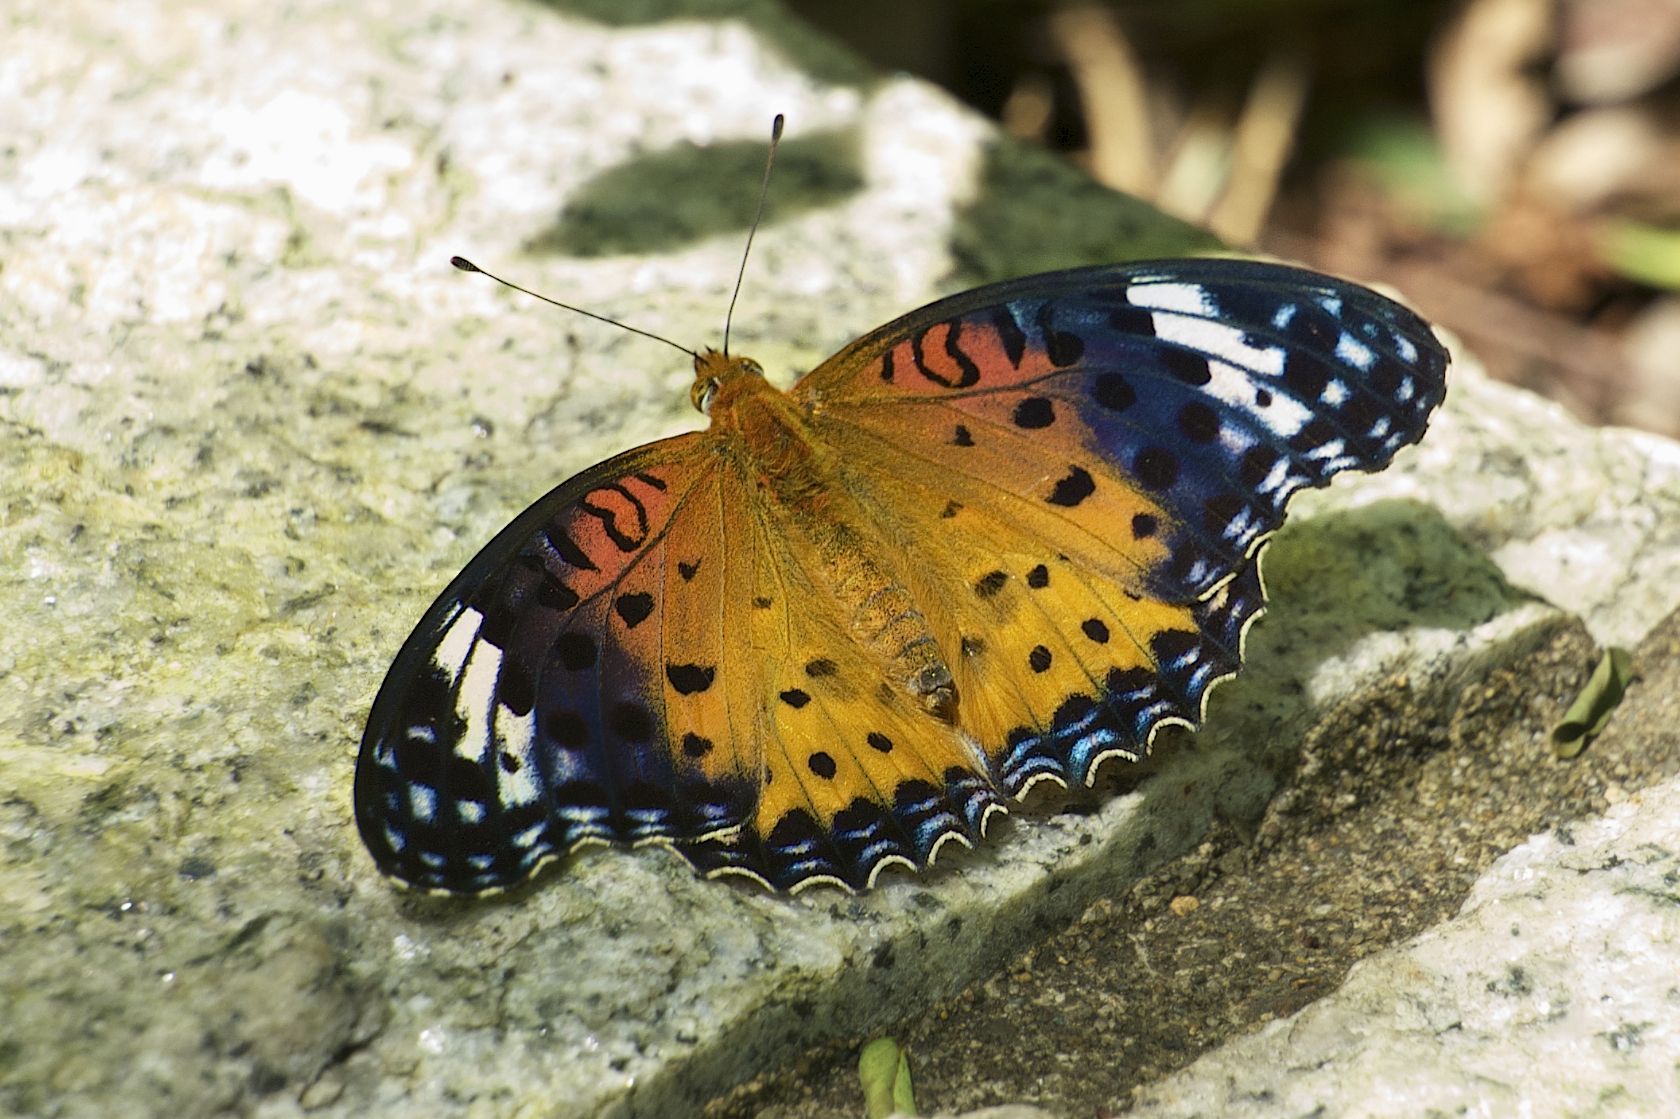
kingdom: Animalia
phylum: Arthropoda
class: Insecta
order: Lepidoptera
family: Nymphalidae
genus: Argynnis
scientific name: Argynnis hyperbius
